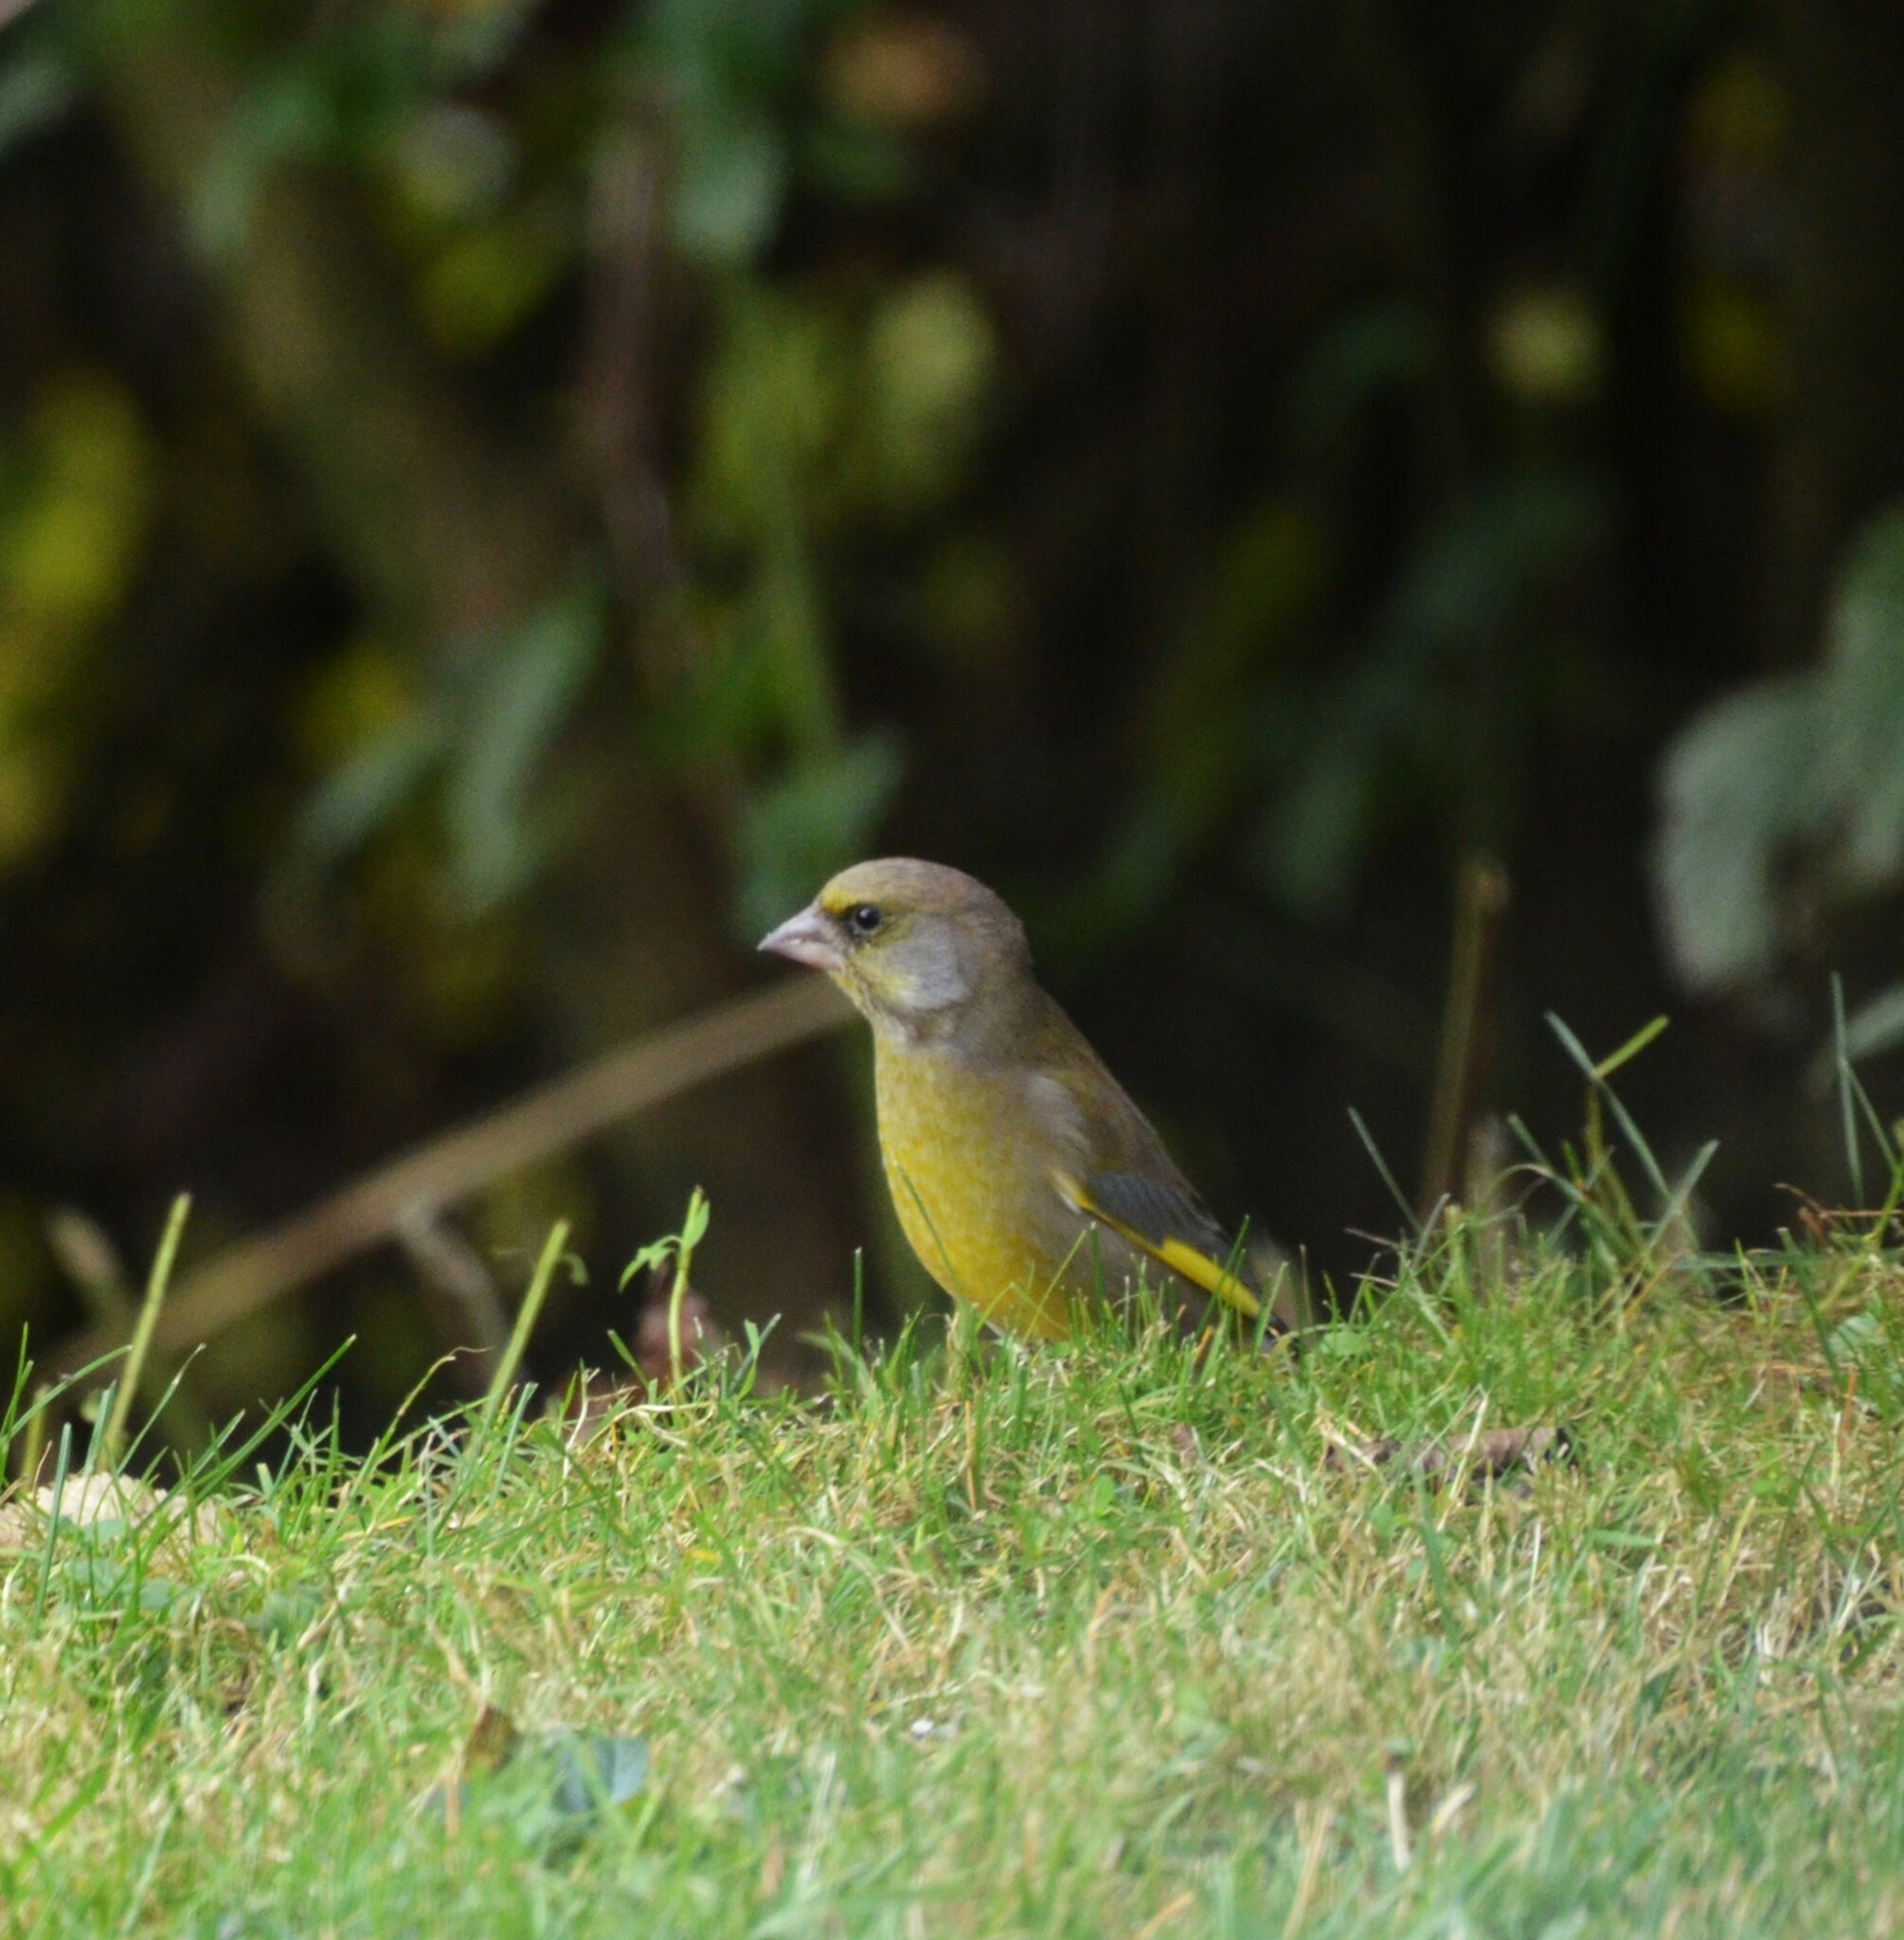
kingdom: Plantae
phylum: Tracheophyta
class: Liliopsida
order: Poales
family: Poaceae
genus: Chloris
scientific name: Chloris chloris
